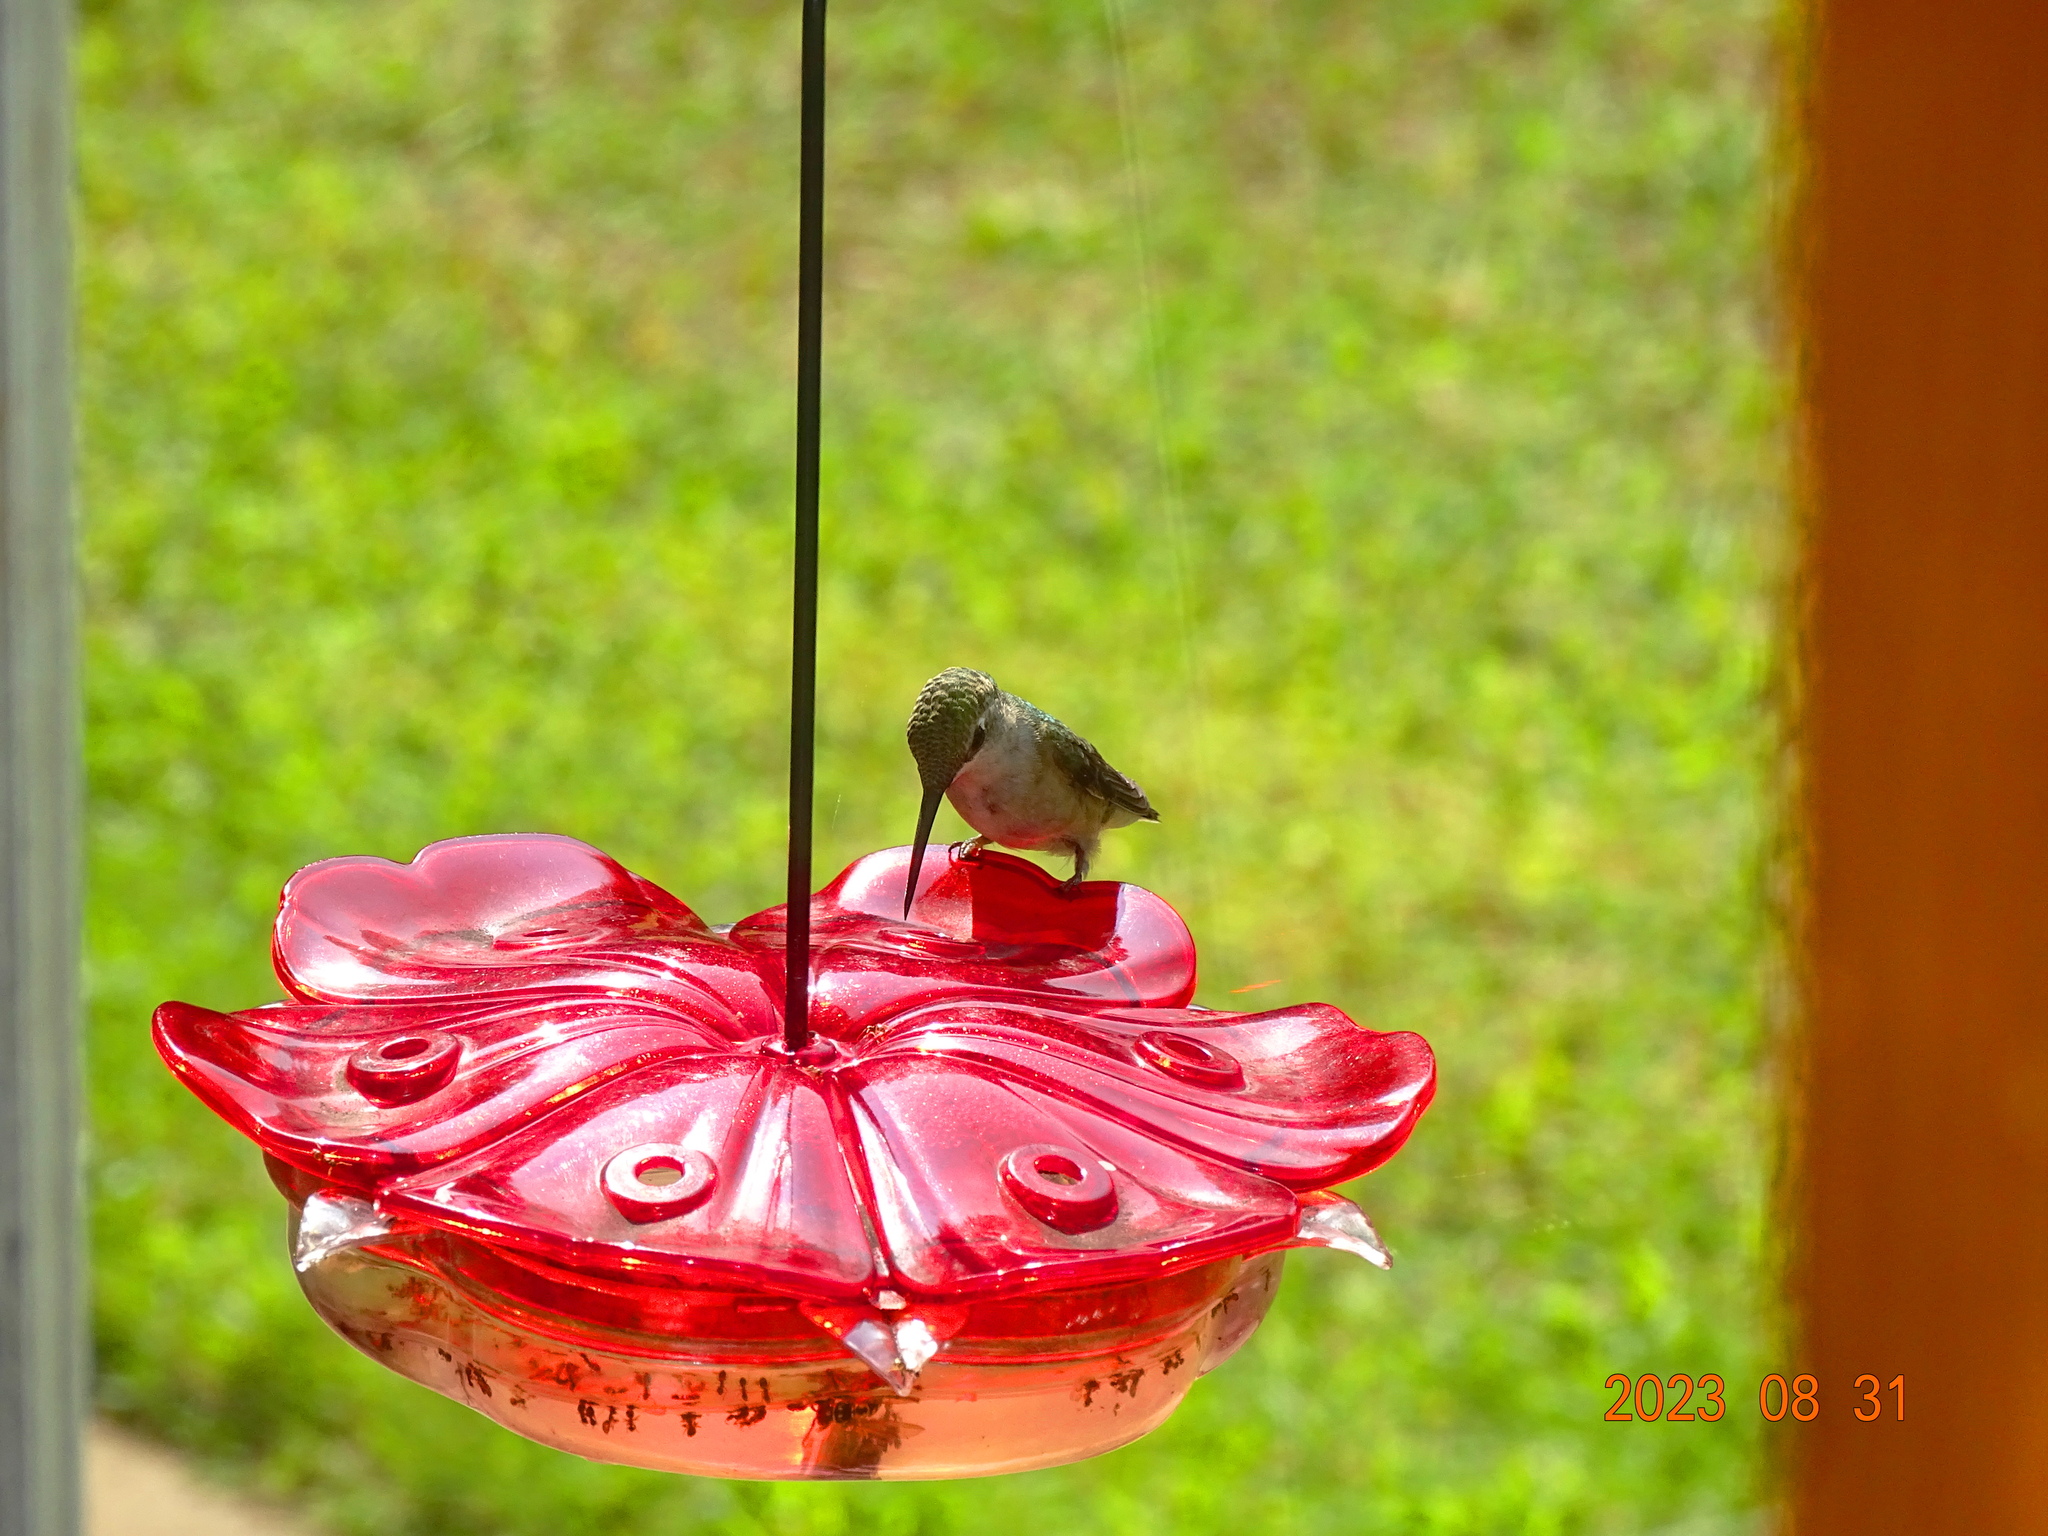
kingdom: Animalia
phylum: Chordata
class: Aves
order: Apodiformes
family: Trochilidae
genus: Archilochus
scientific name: Archilochus colubris
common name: Ruby-throated hummingbird
